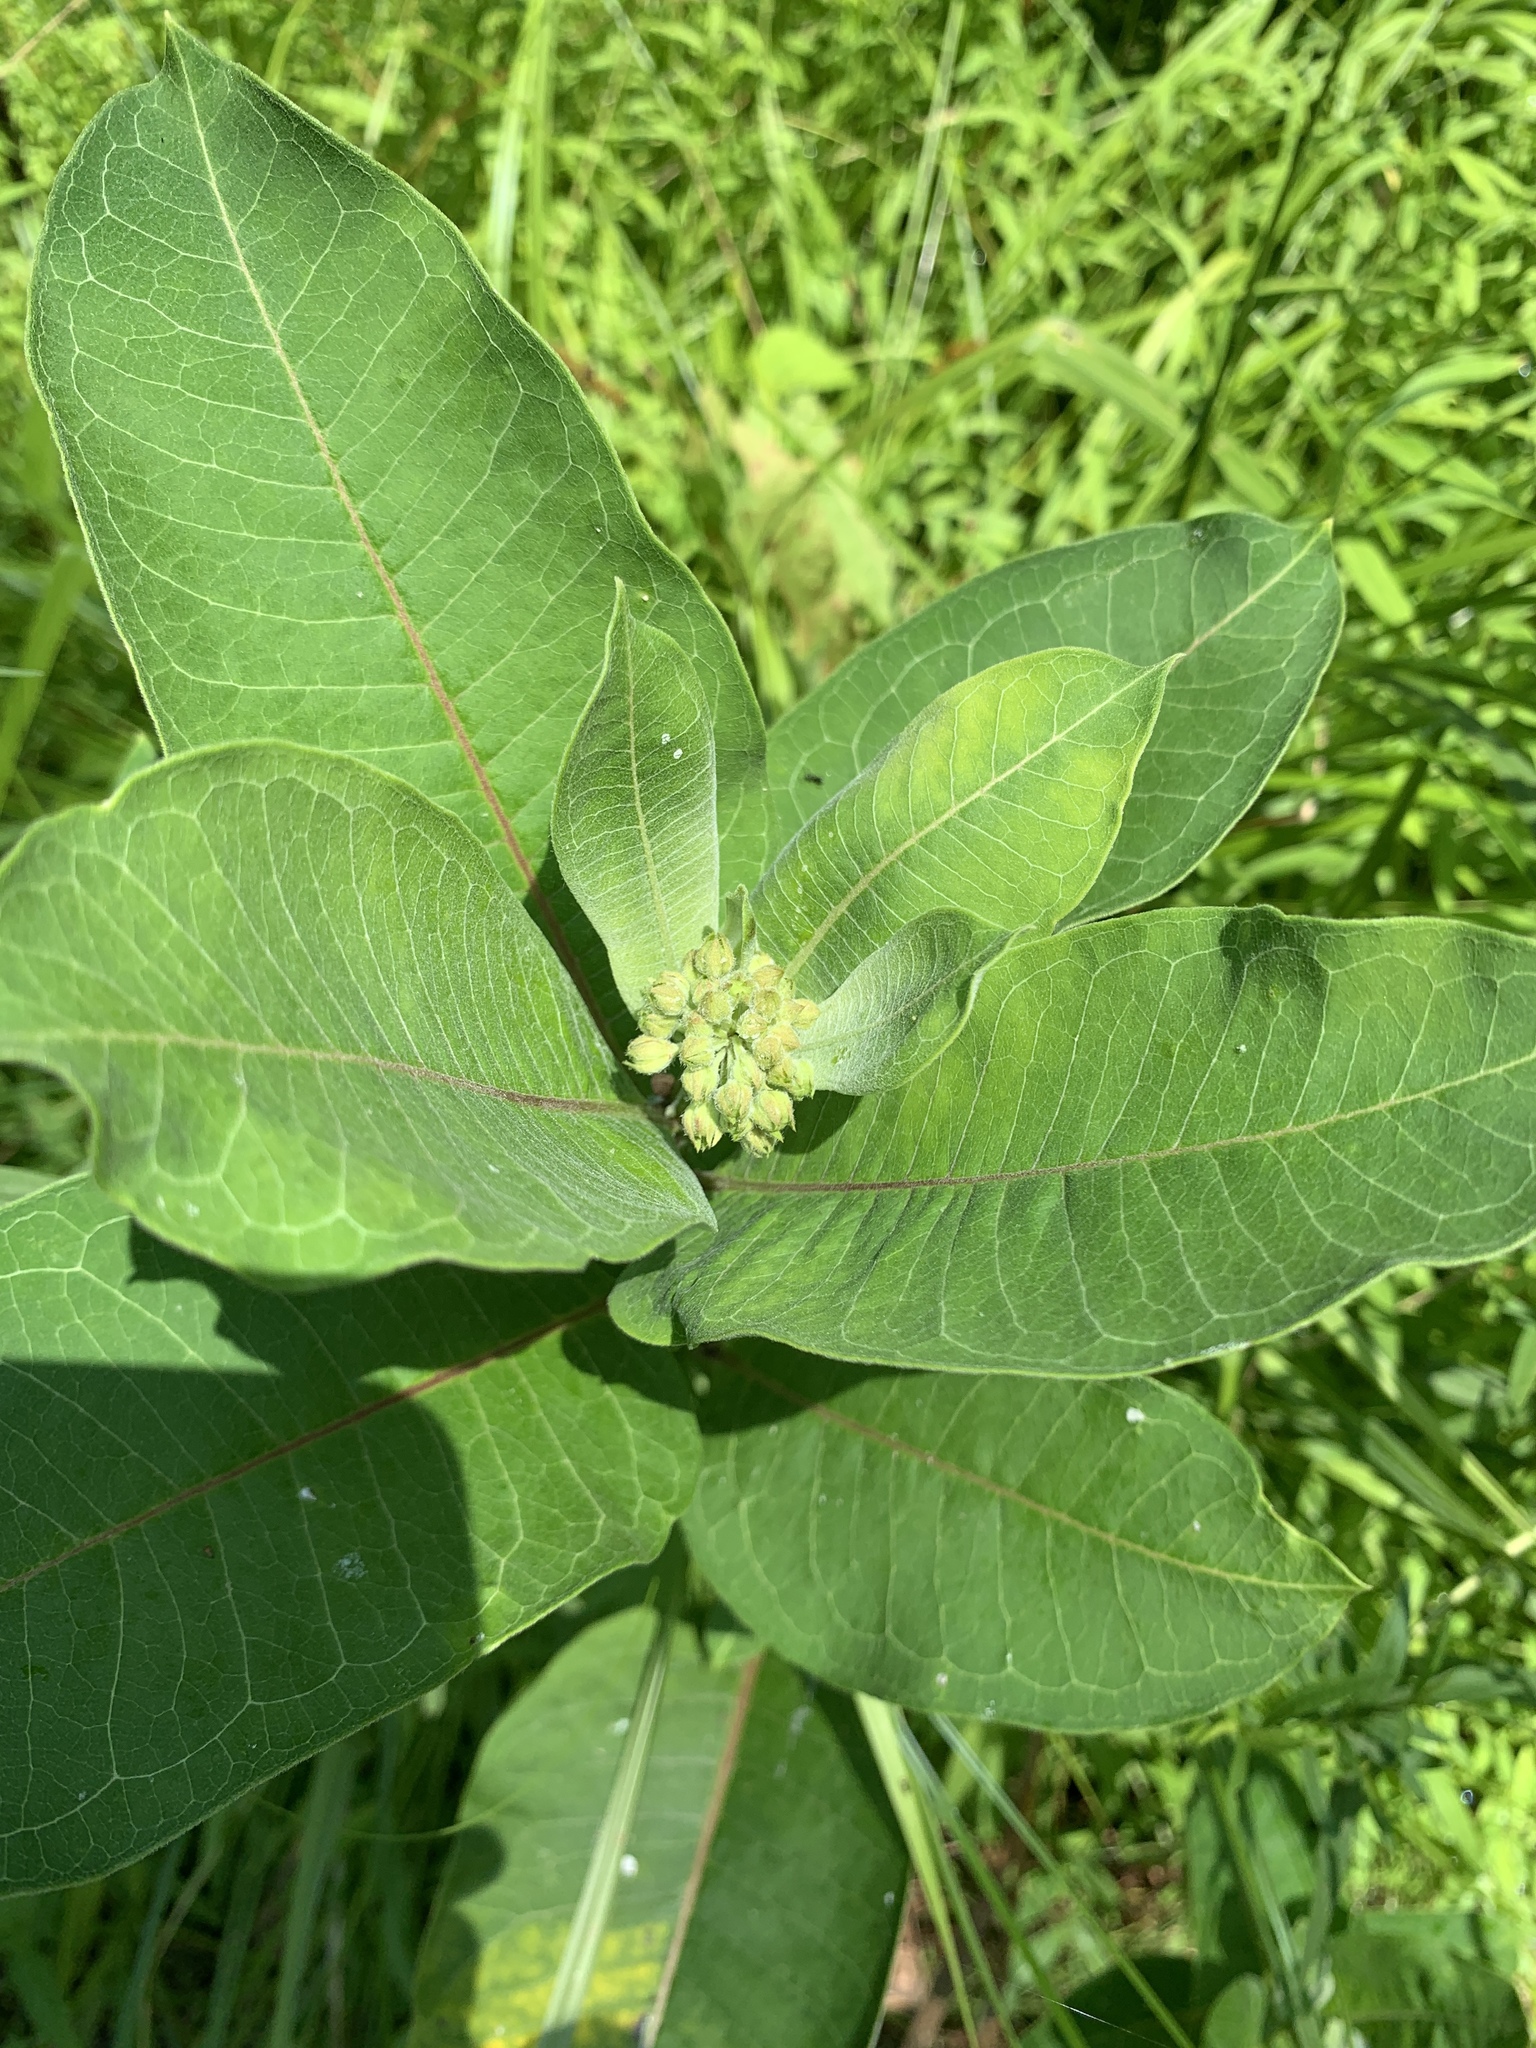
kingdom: Plantae
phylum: Tracheophyta
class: Magnoliopsida
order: Gentianales
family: Apocynaceae
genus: Asclepias
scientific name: Asclepias syriaca
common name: Common milkweed
